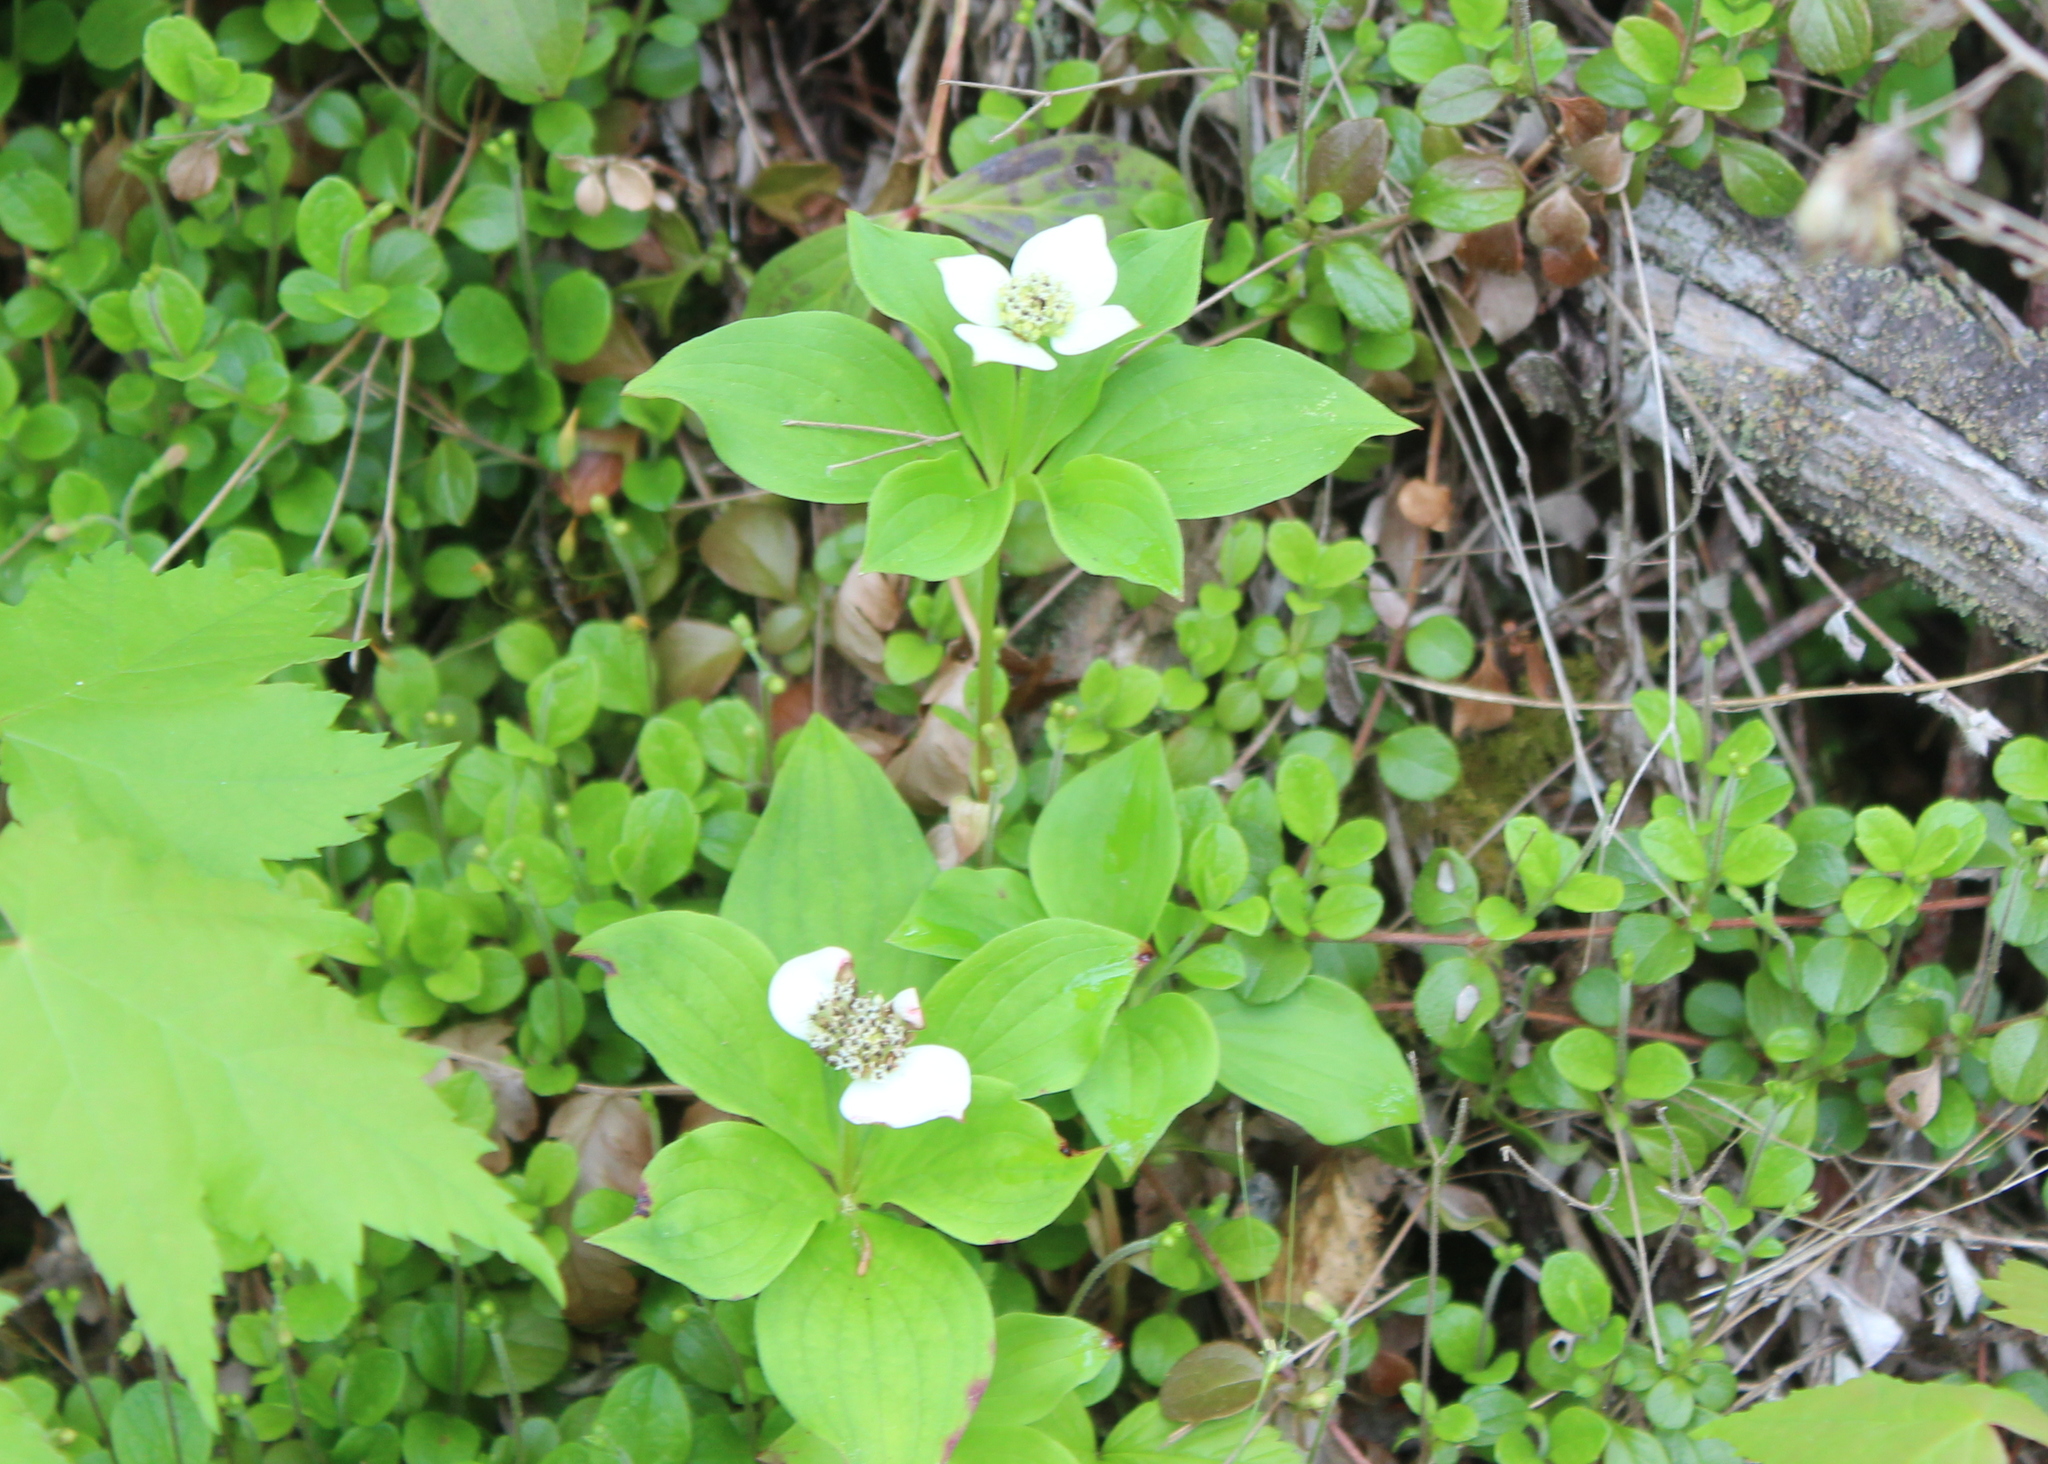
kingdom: Plantae
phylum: Tracheophyta
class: Magnoliopsida
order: Cornales
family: Cornaceae
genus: Cornus
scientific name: Cornus canadensis
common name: Creeping dogwood
